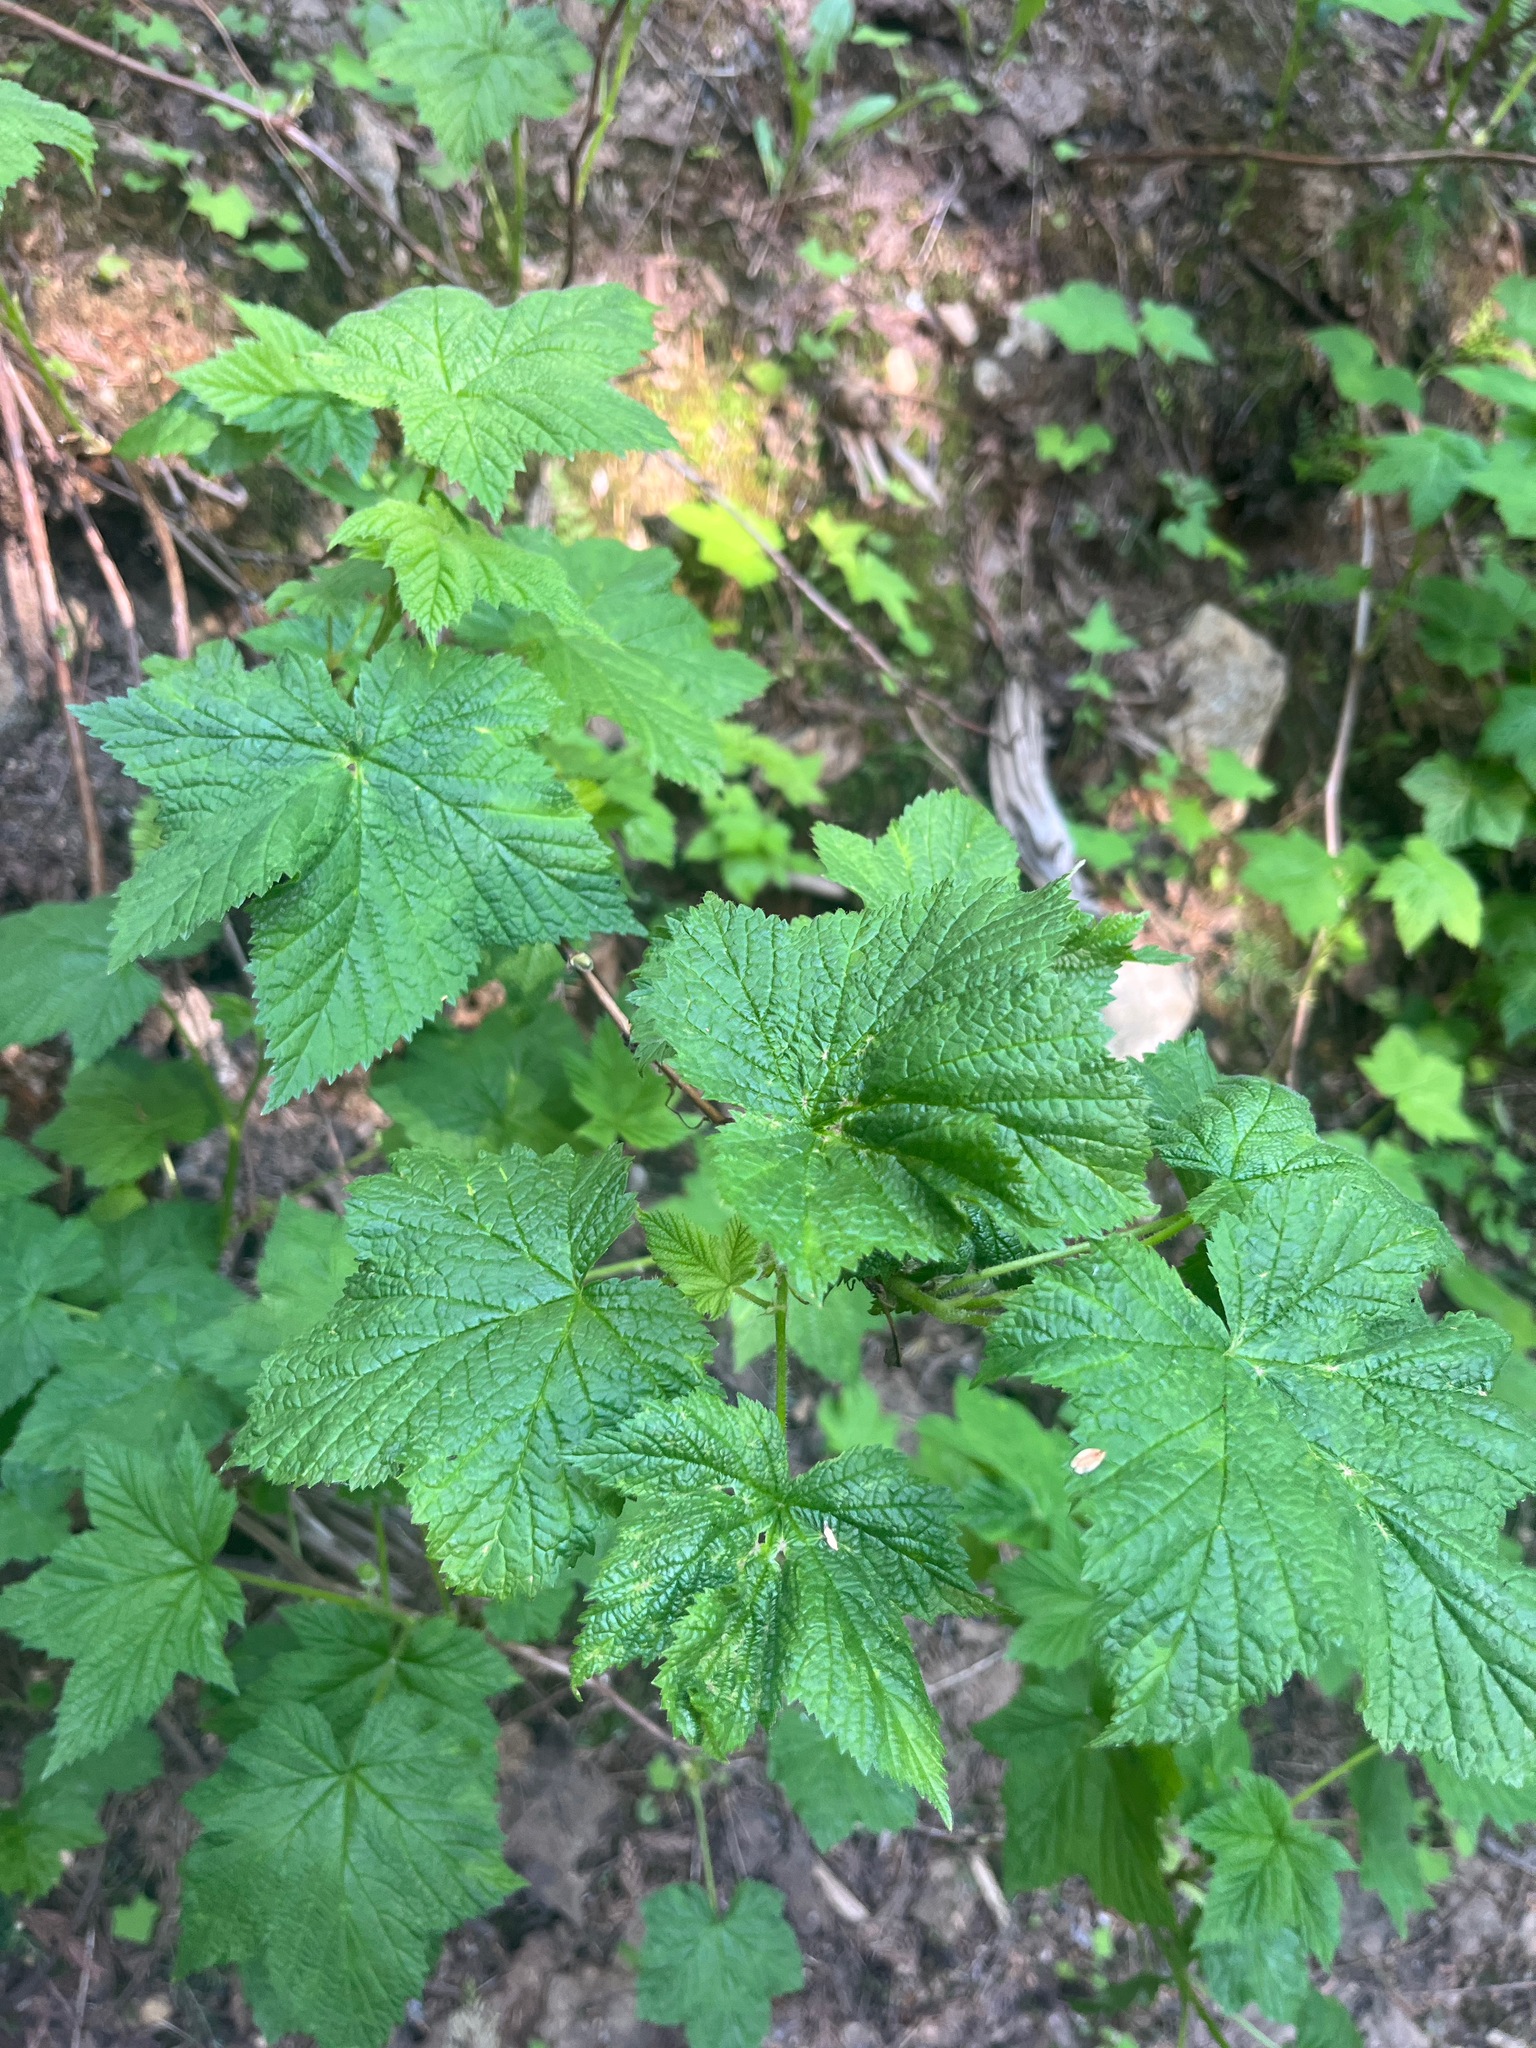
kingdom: Plantae
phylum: Tracheophyta
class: Magnoliopsida
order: Rosales
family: Rosaceae
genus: Rubus
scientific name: Rubus parviflorus
